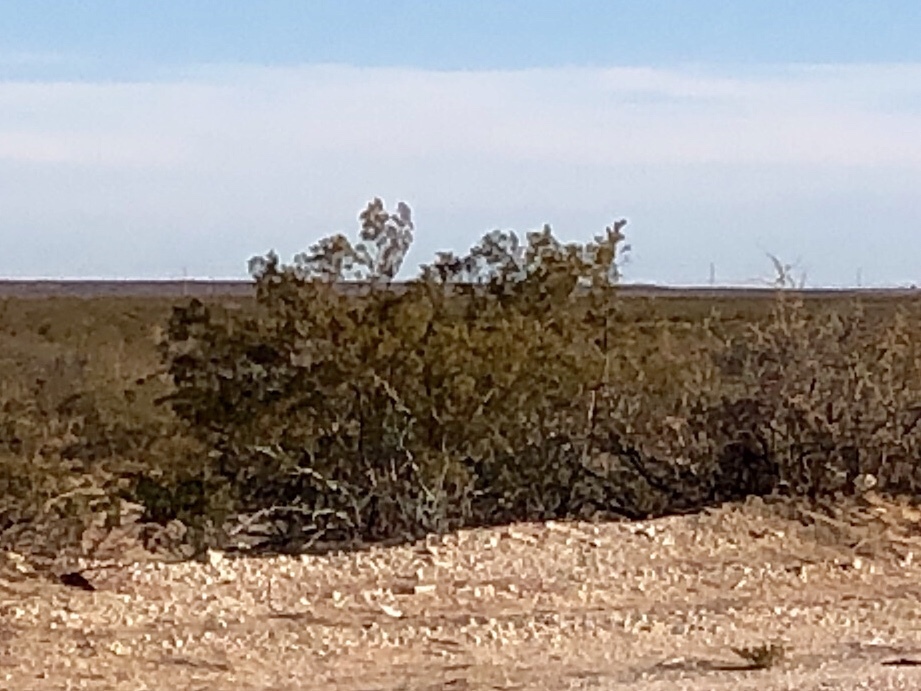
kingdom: Plantae
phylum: Tracheophyta
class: Magnoliopsida
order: Zygophyllales
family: Zygophyllaceae
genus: Larrea
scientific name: Larrea tridentata
